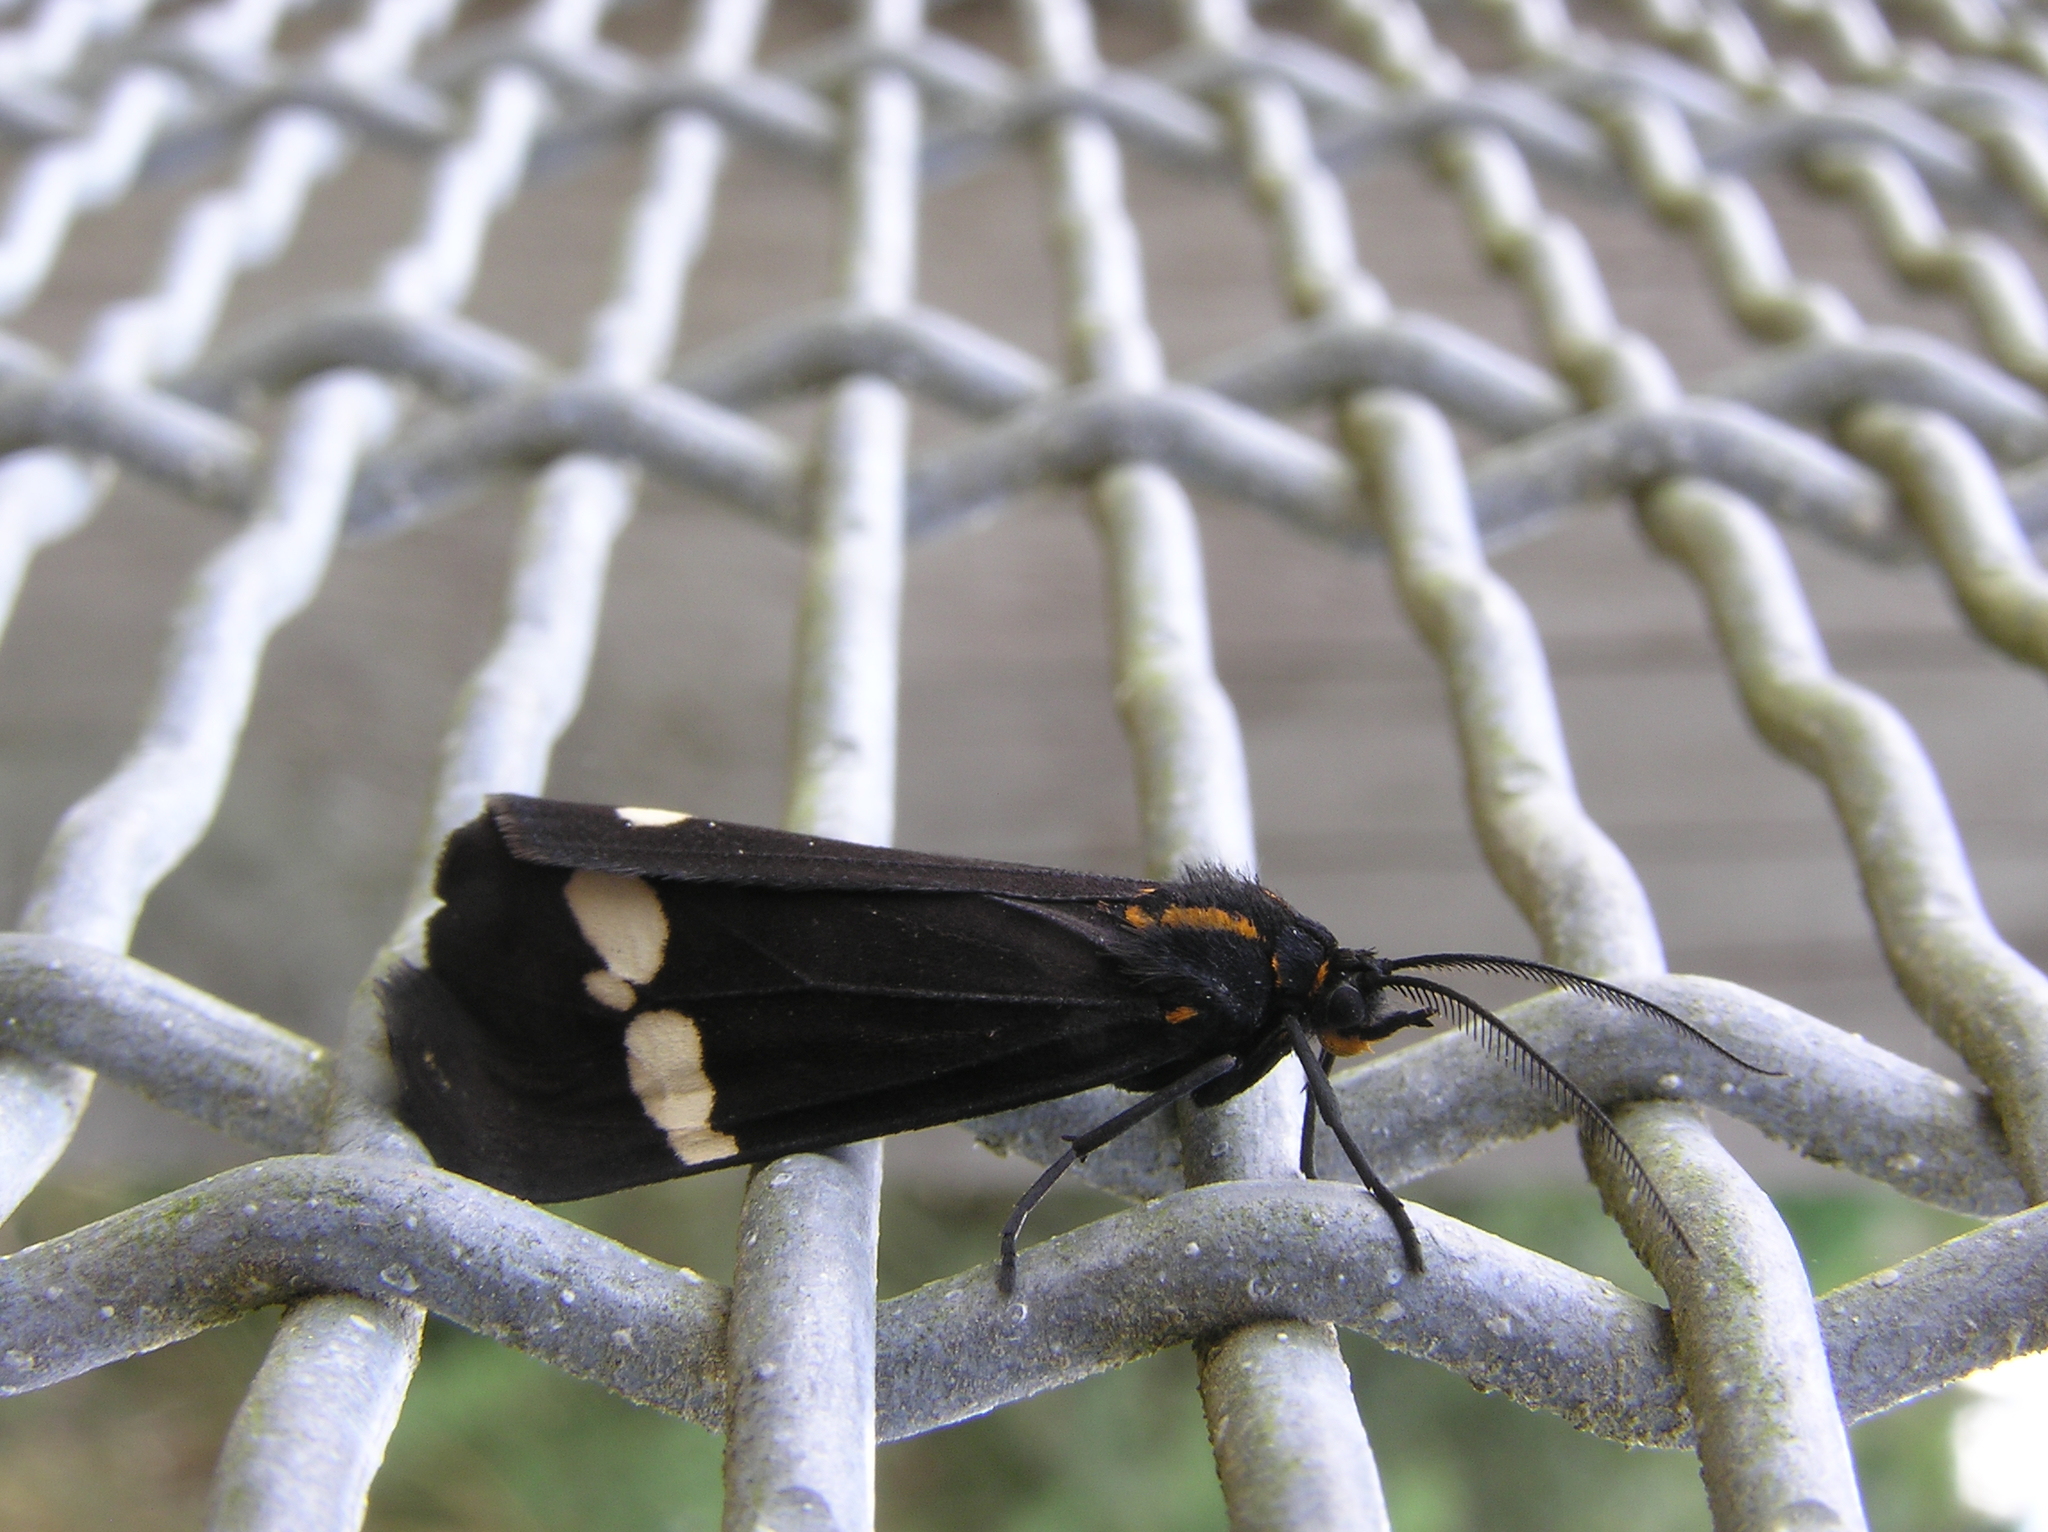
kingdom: Animalia
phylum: Arthropoda
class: Insecta
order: Lepidoptera
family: Erebidae
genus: Nyctemera
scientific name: Nyctemera annulatum
